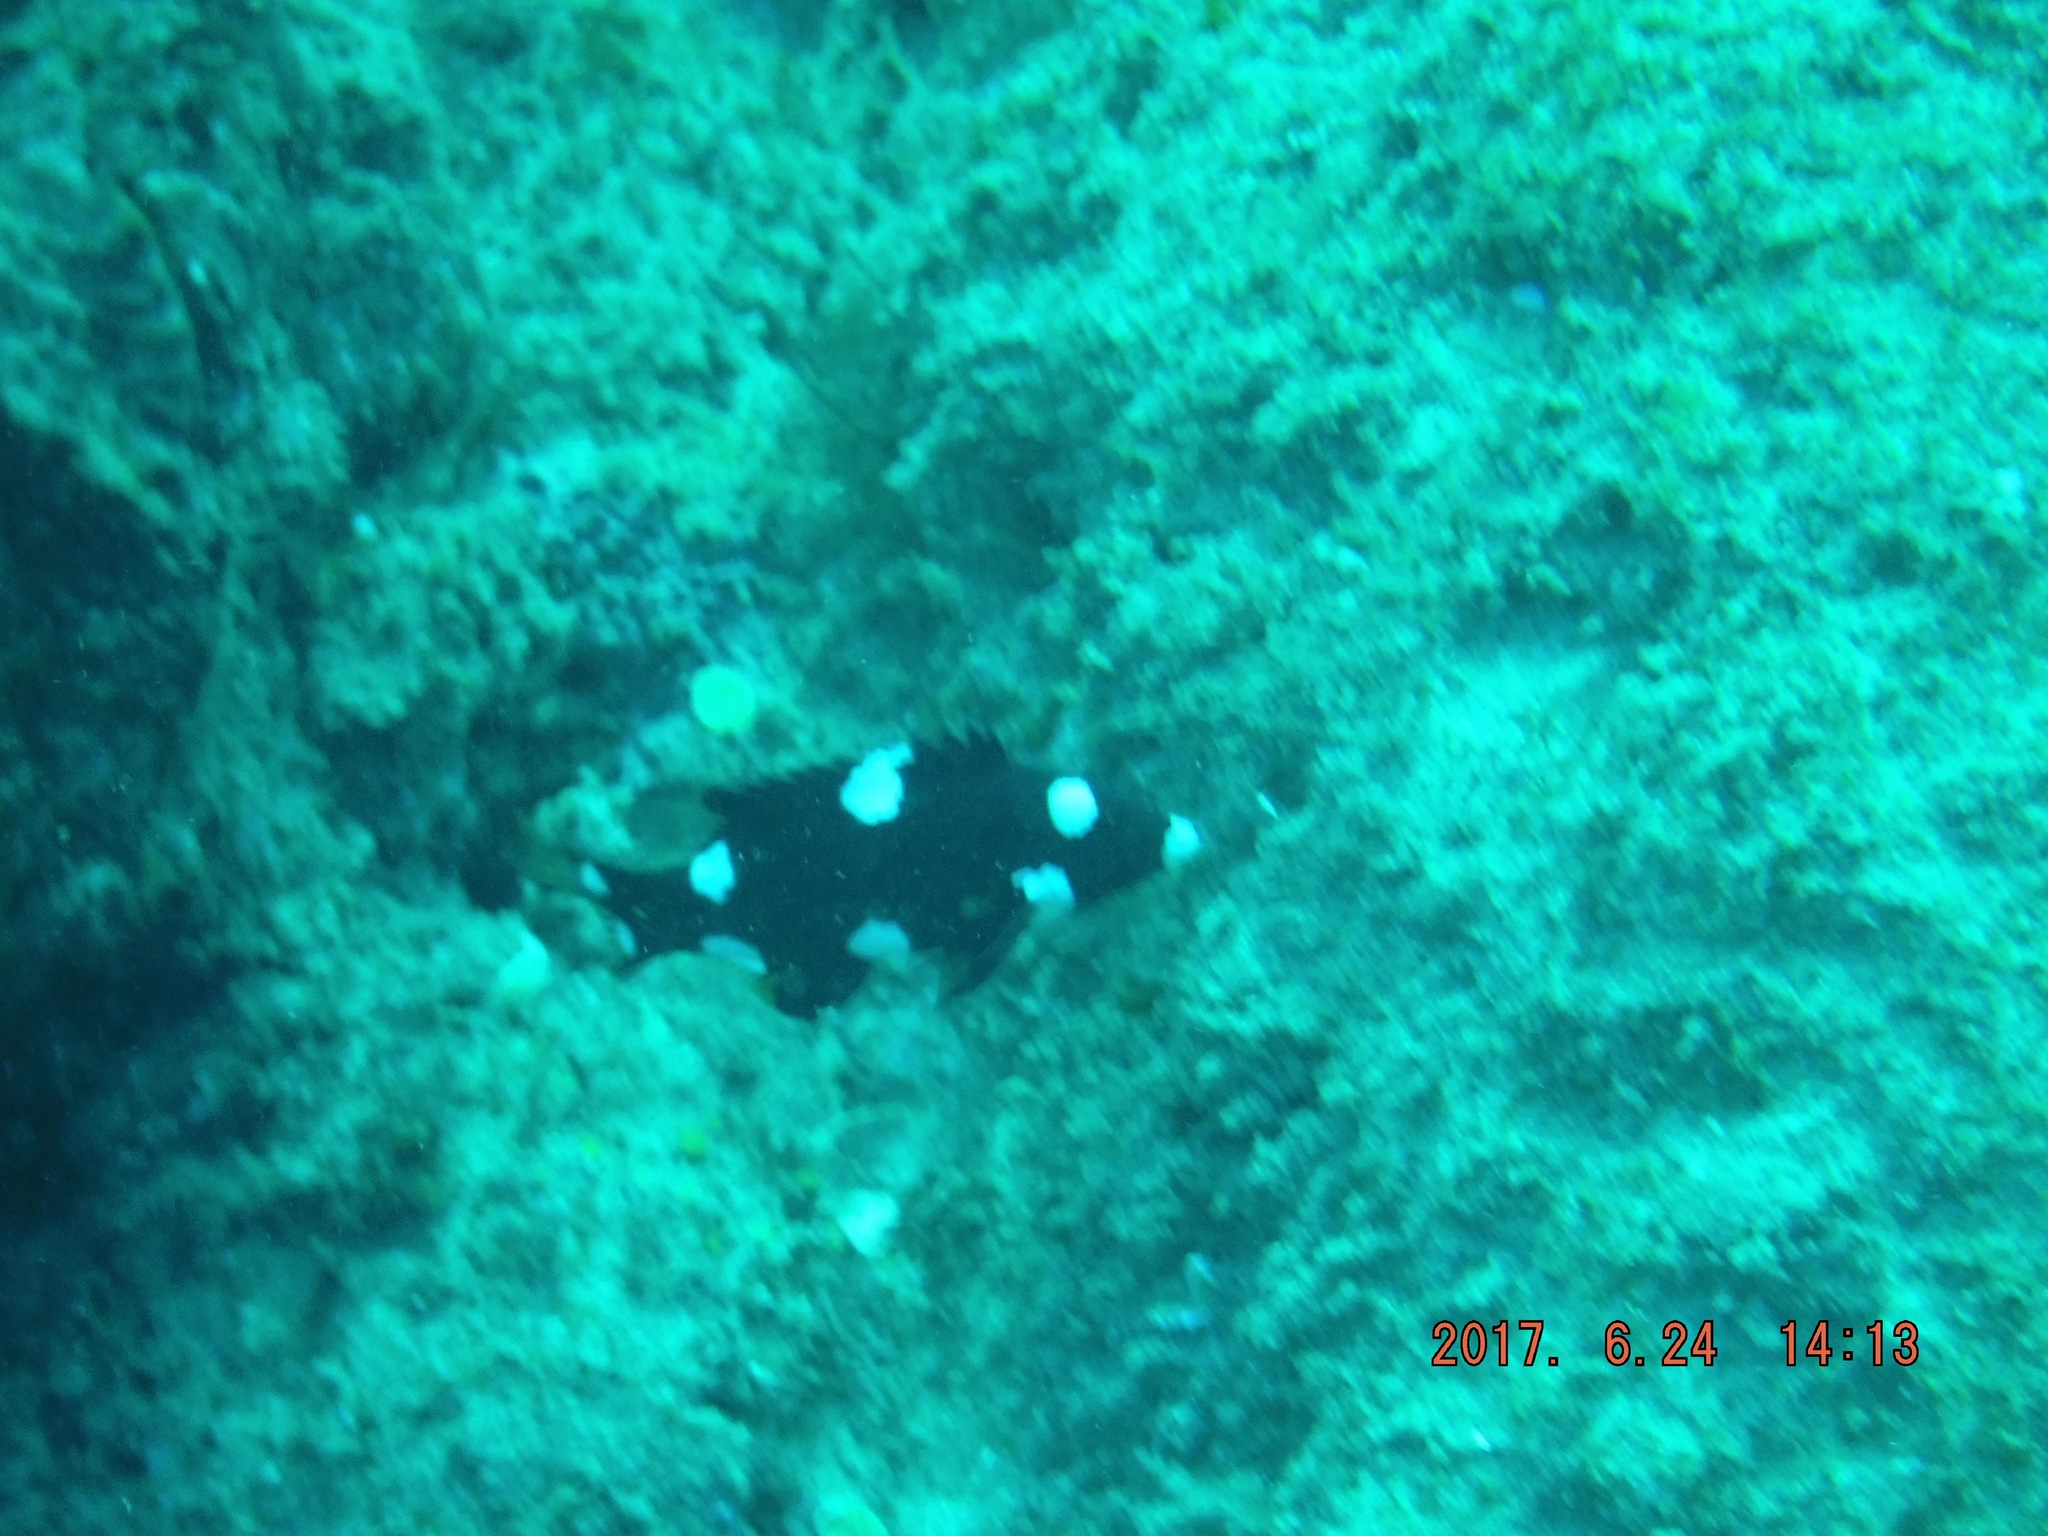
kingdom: Animalia
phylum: Chordata
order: Perciformes
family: Labridae
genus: Bodianus
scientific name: Bodianus axillaris
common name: Axilspot hogfish
